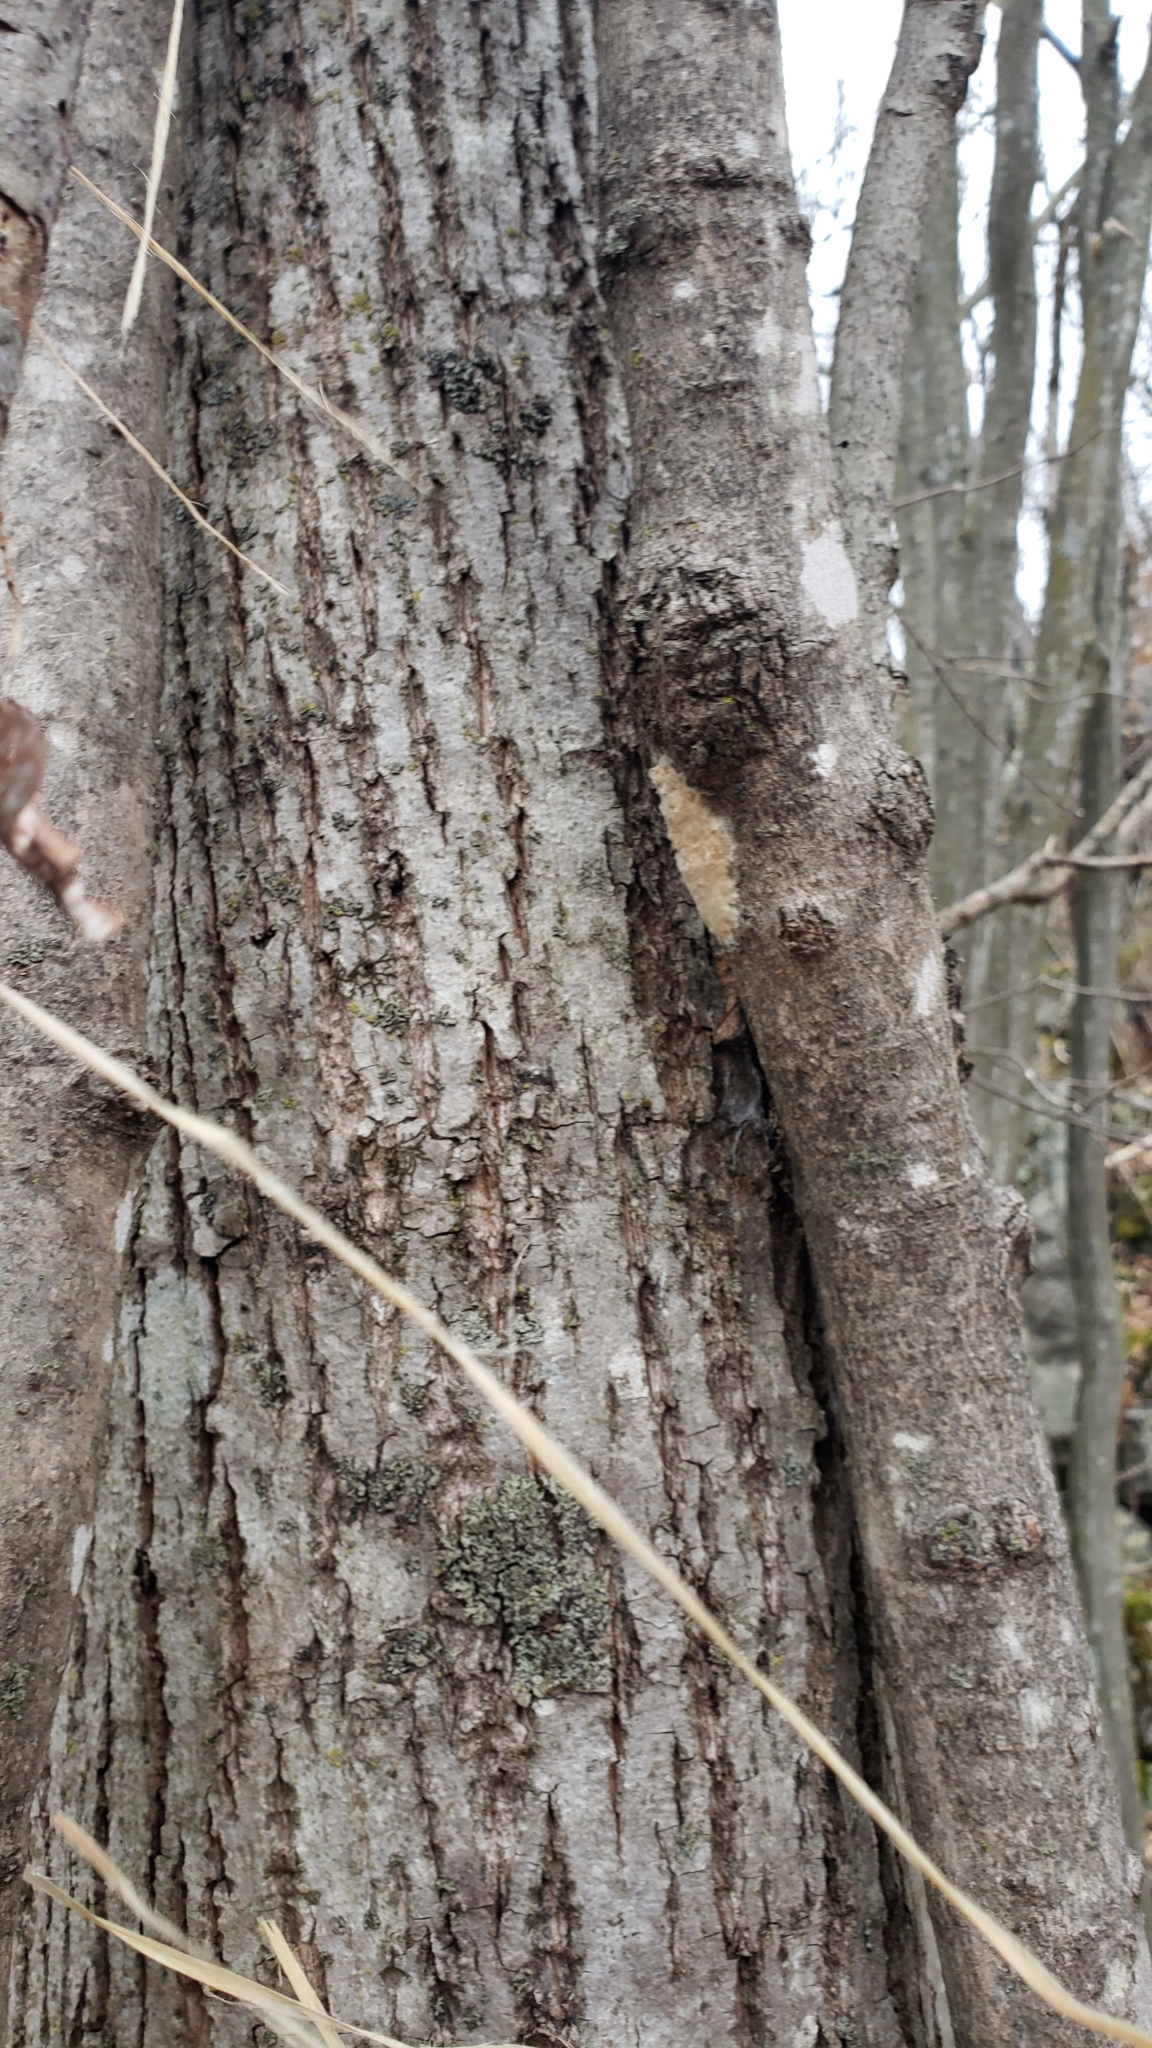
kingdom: Animalia
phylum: Arthropoda
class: Insecta
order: Lepidoptera
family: Erebidae
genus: Lymantria
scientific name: Lymantria dispar
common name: Gypsy moth
